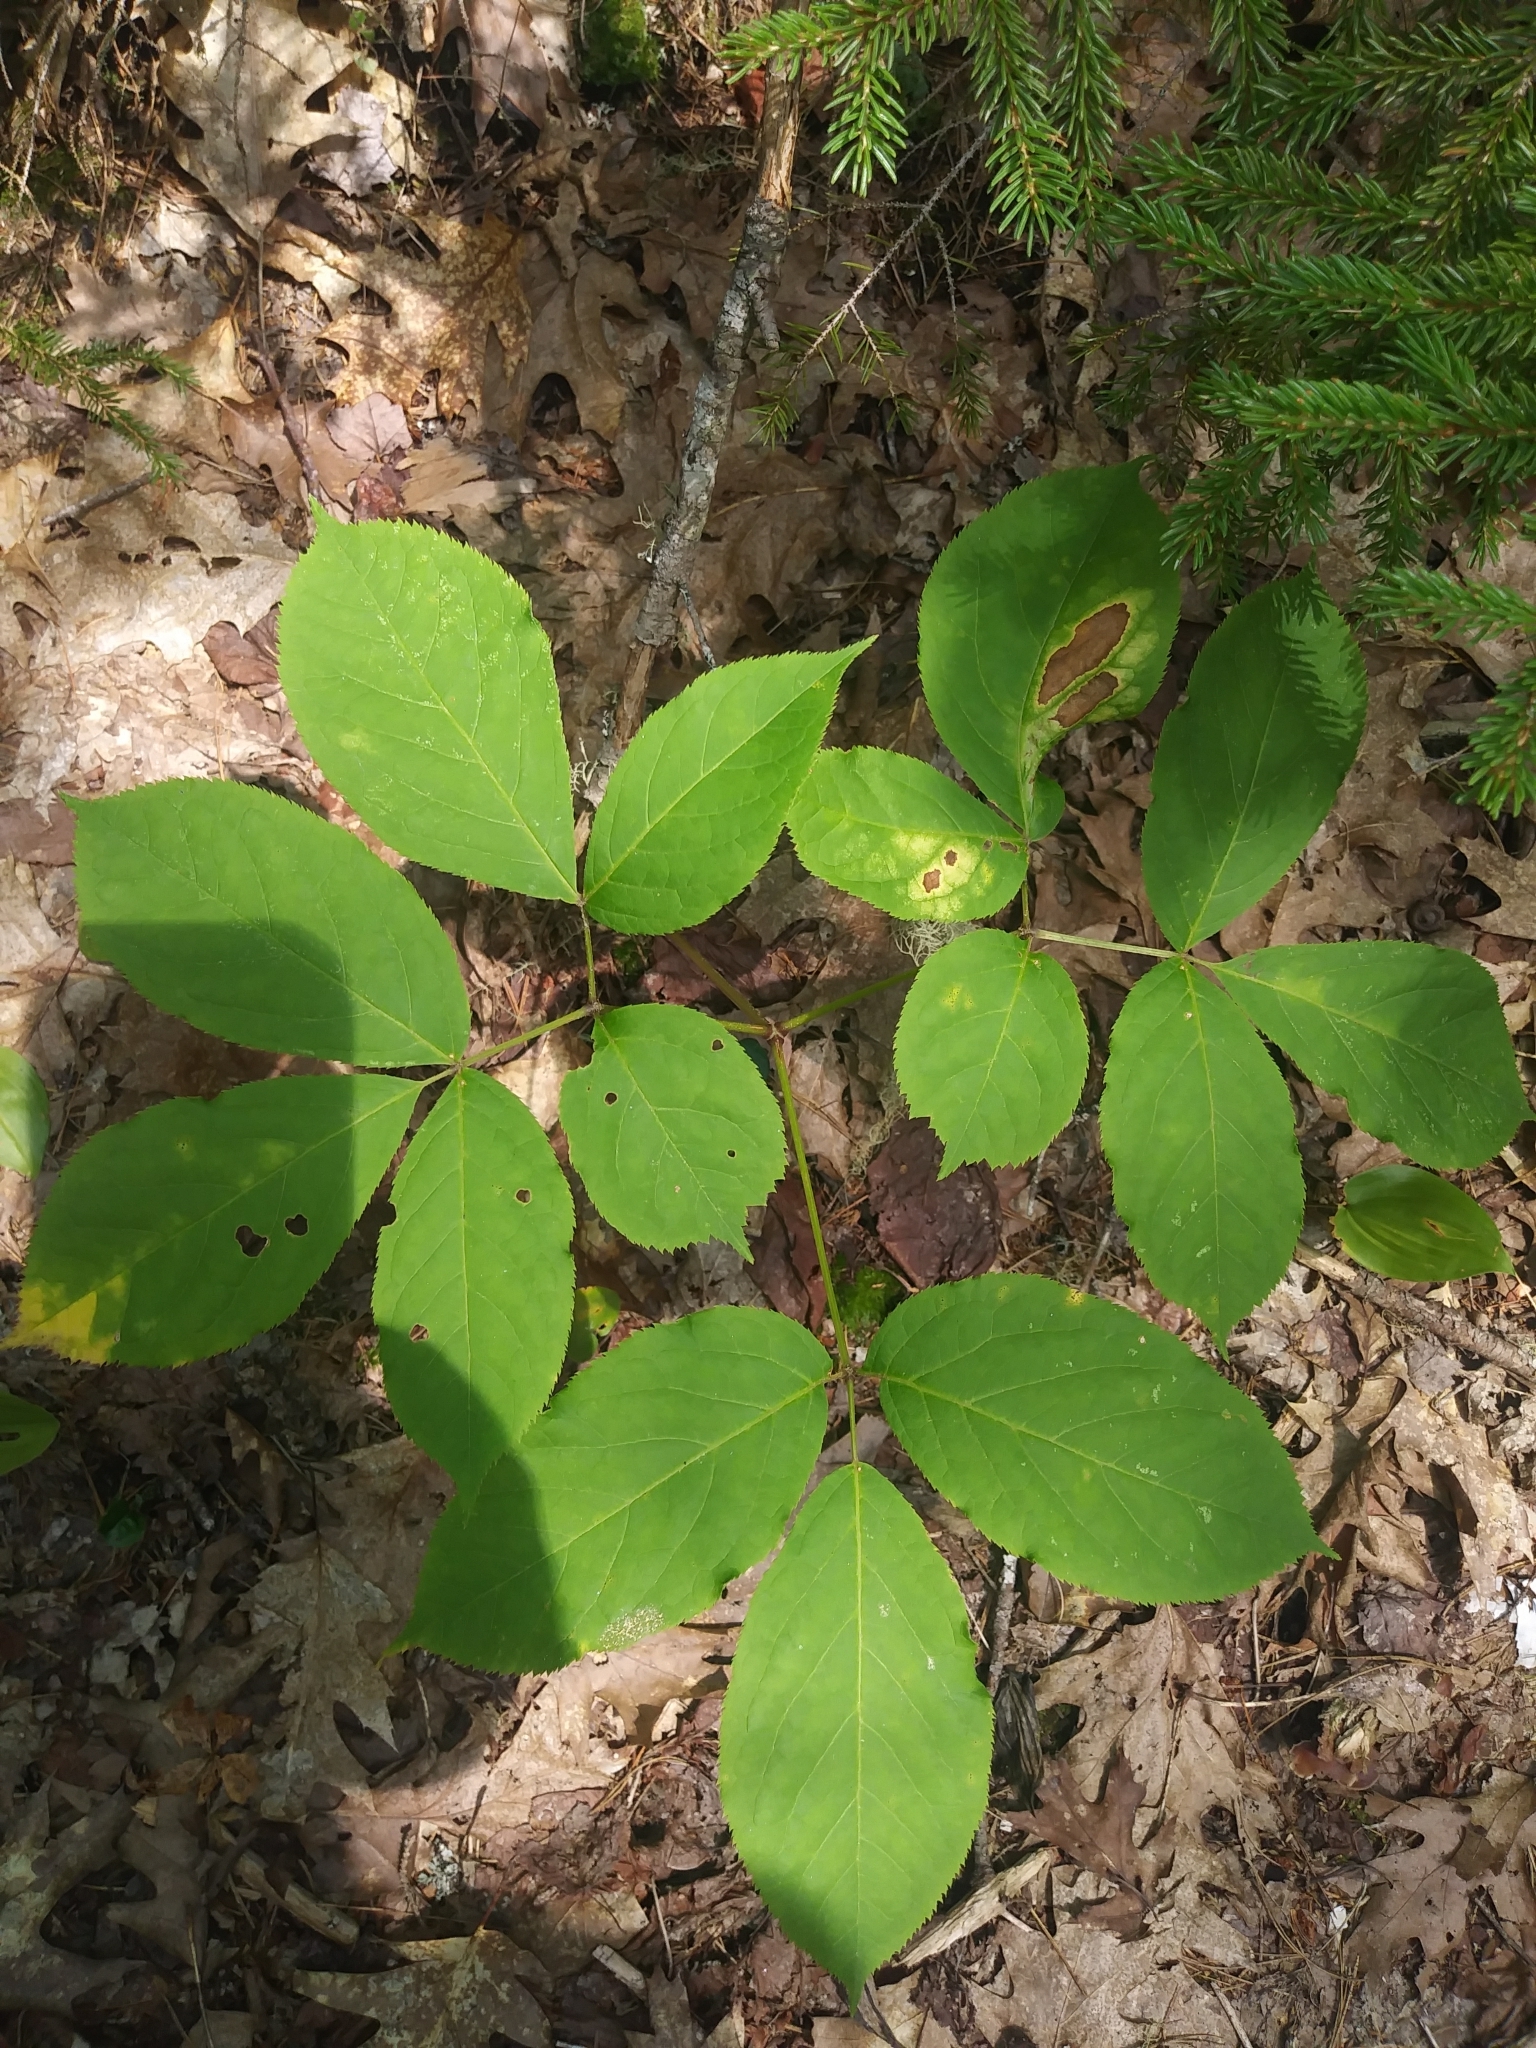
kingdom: Plantae
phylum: Tracheophyta
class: Magnoliopsida
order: Apiales
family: Araliaceae
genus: Aralia
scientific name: Aralia nudicaulis
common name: Wild sarsaparilla
